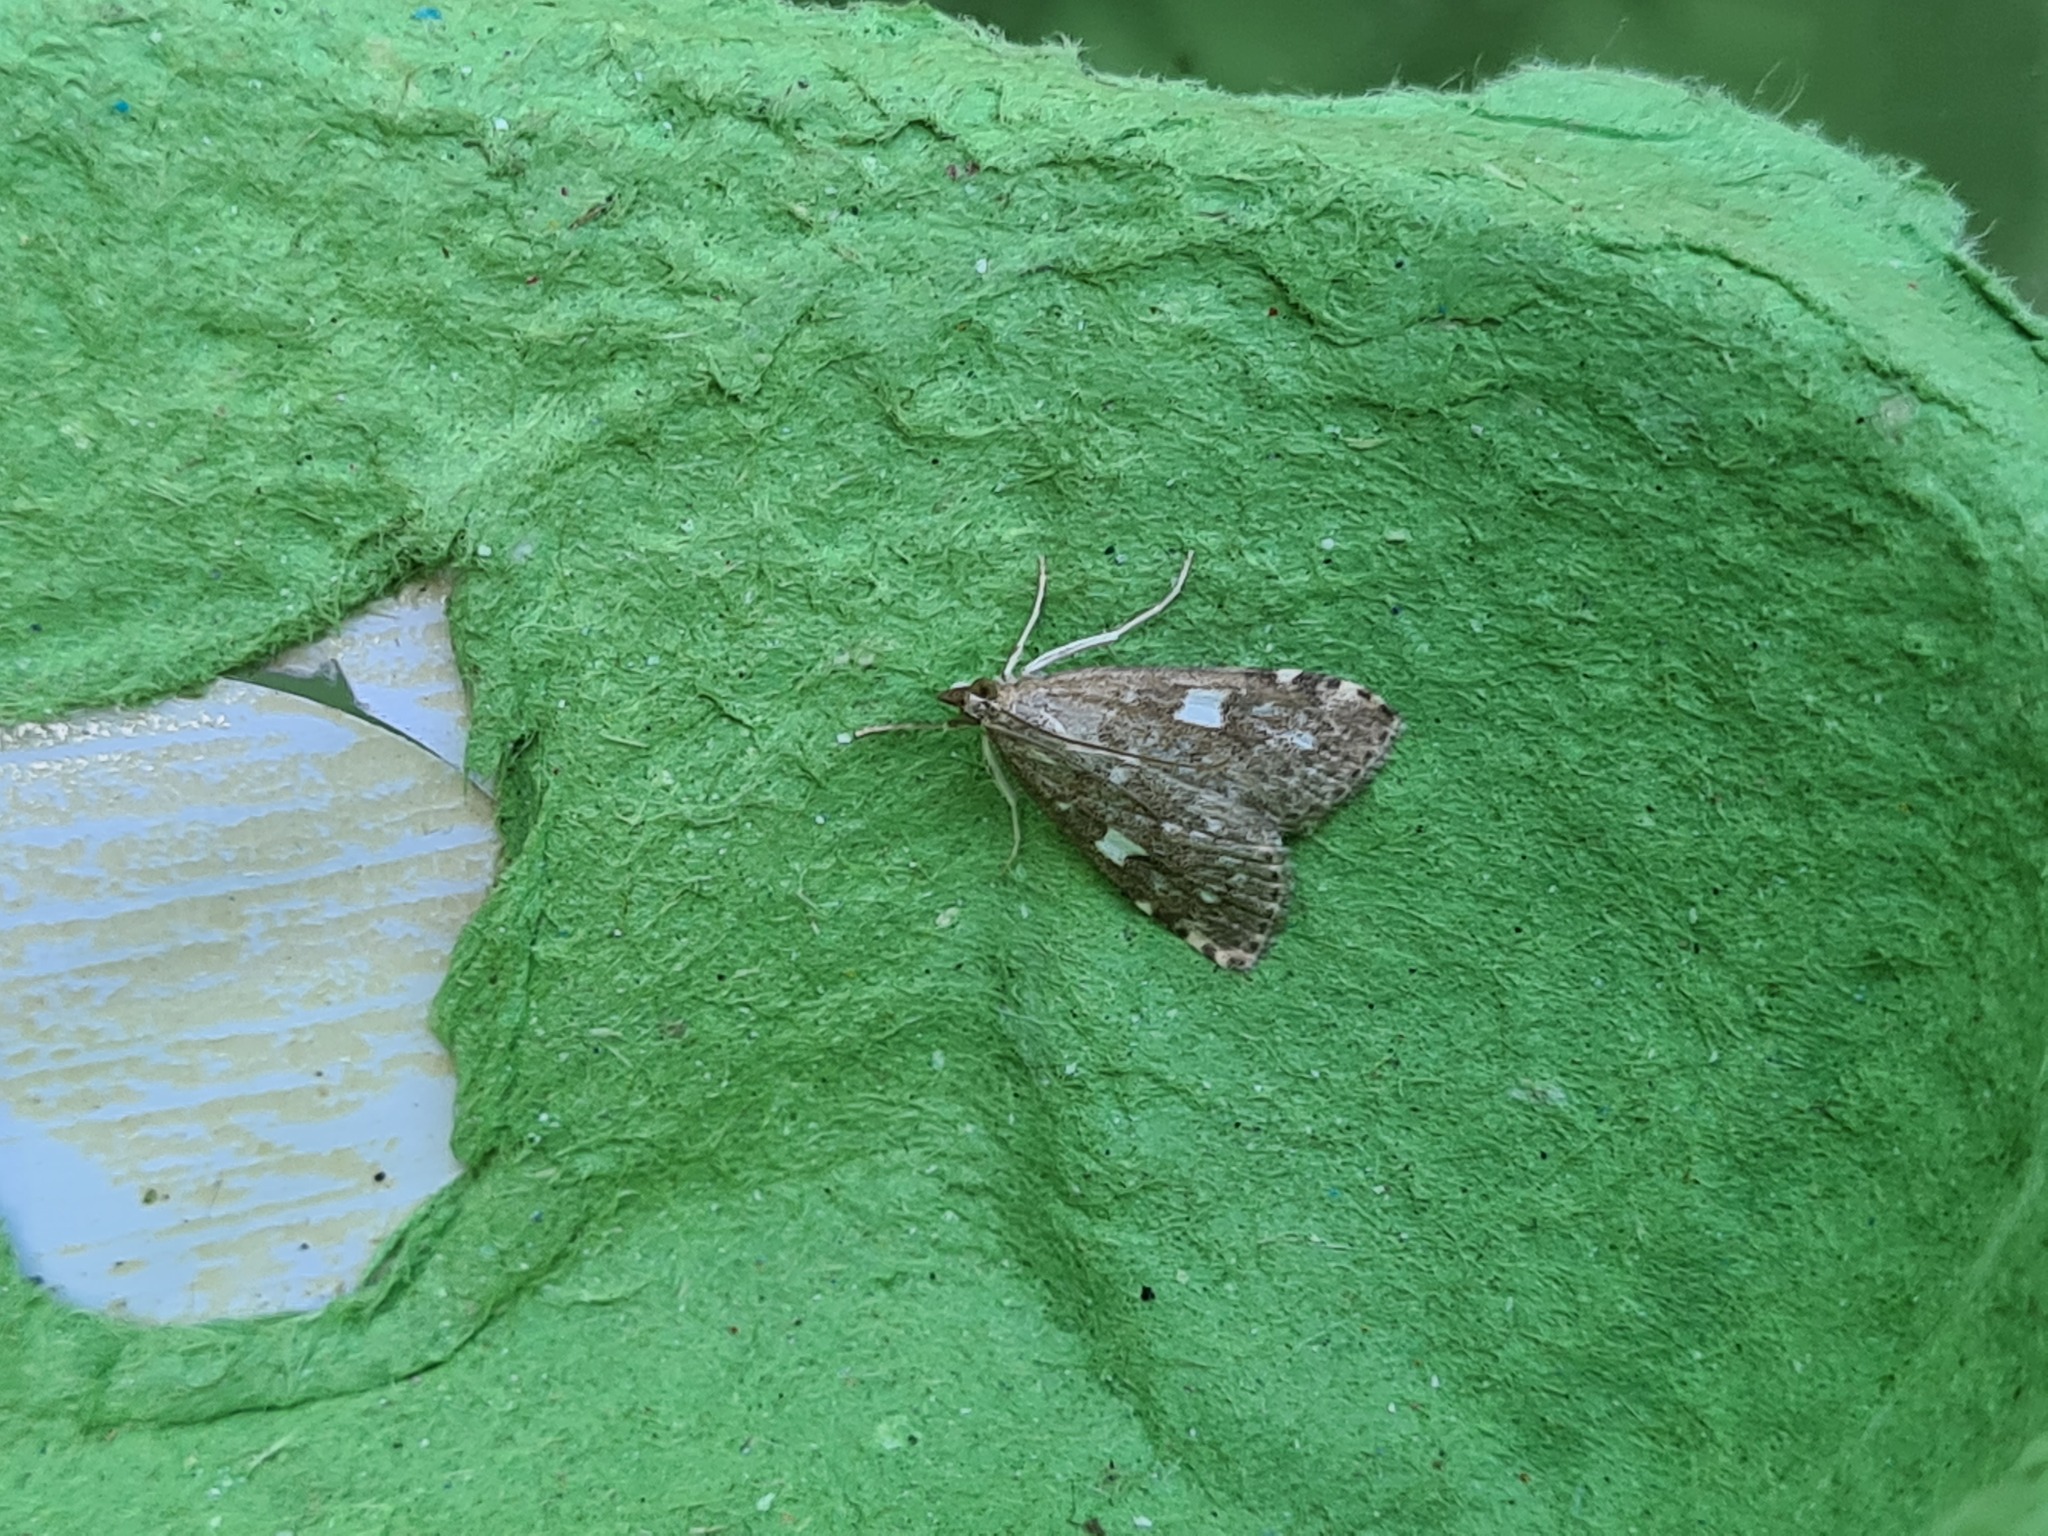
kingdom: Animalia
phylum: Arthropoda
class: Insecta
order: Lepidoptera
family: Crambidae
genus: Udea
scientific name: Udea olivalis
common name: Olive pearl
